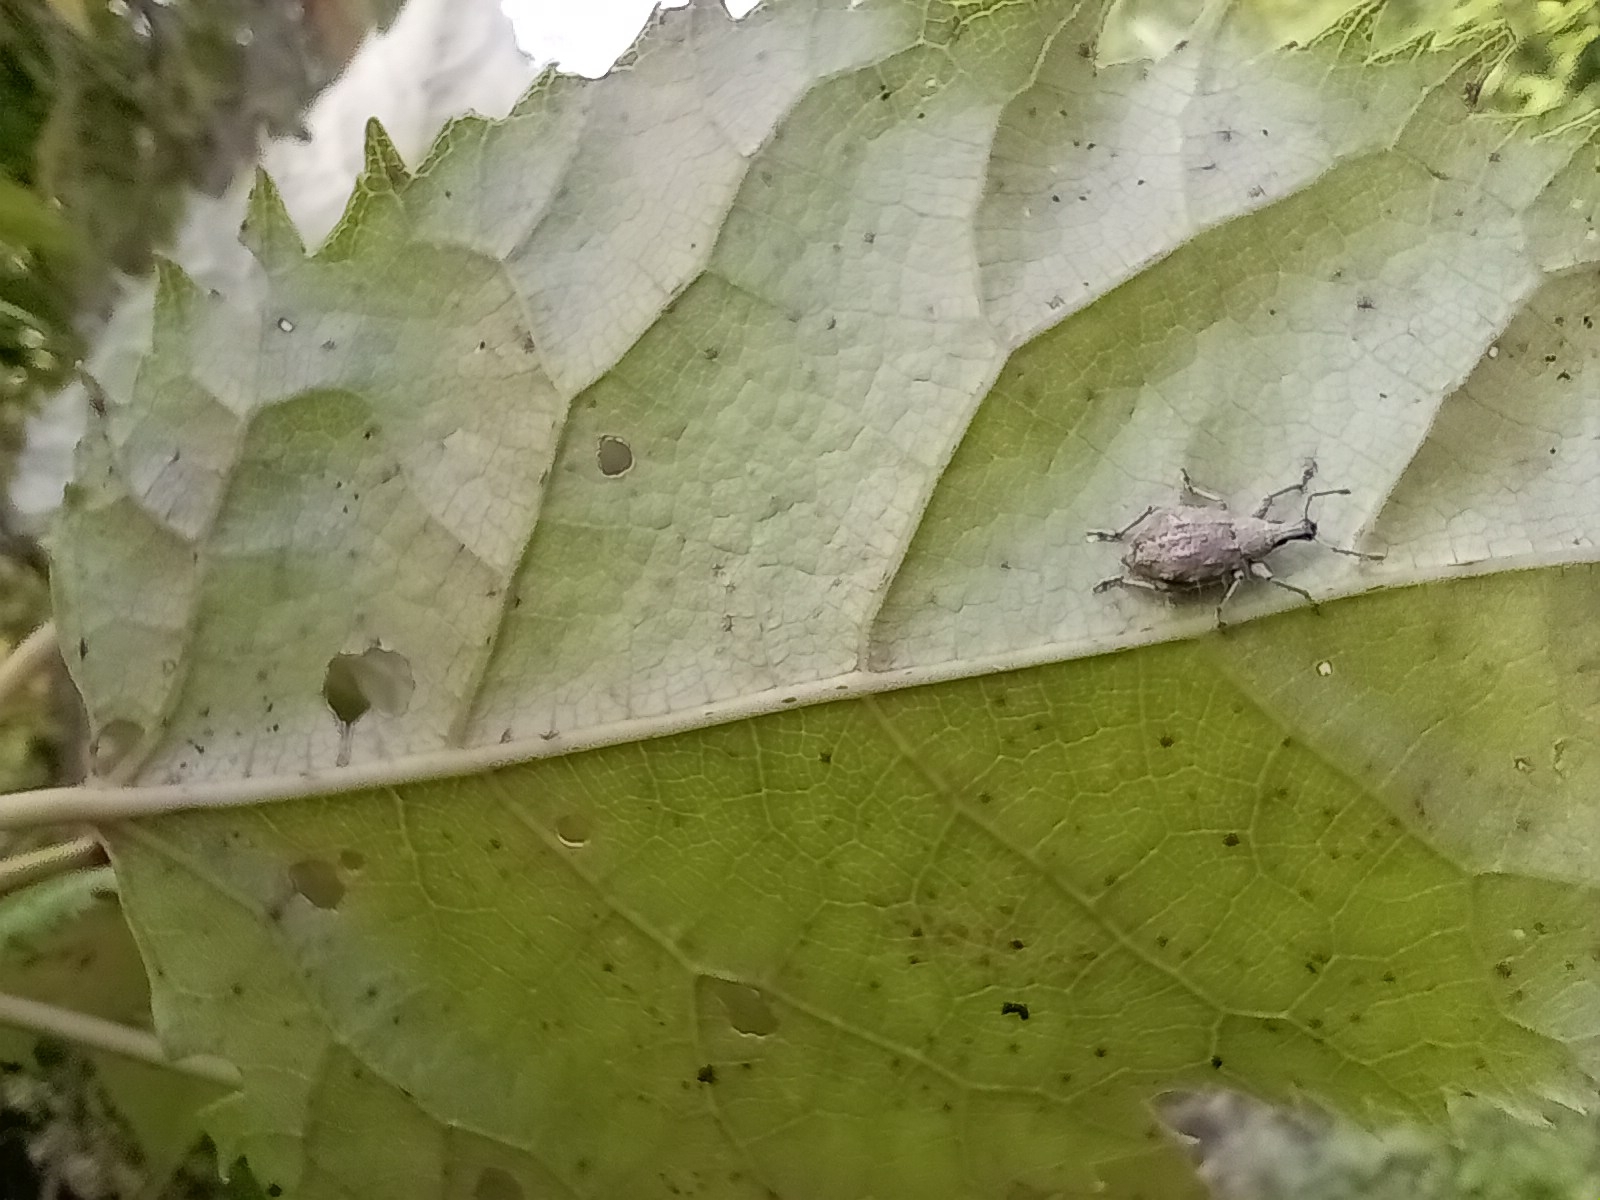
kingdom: Animalia
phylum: Arthropoda
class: Insecta
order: Coleoptera
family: Curculionidae
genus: Catoptes
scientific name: Catoptes censorius
